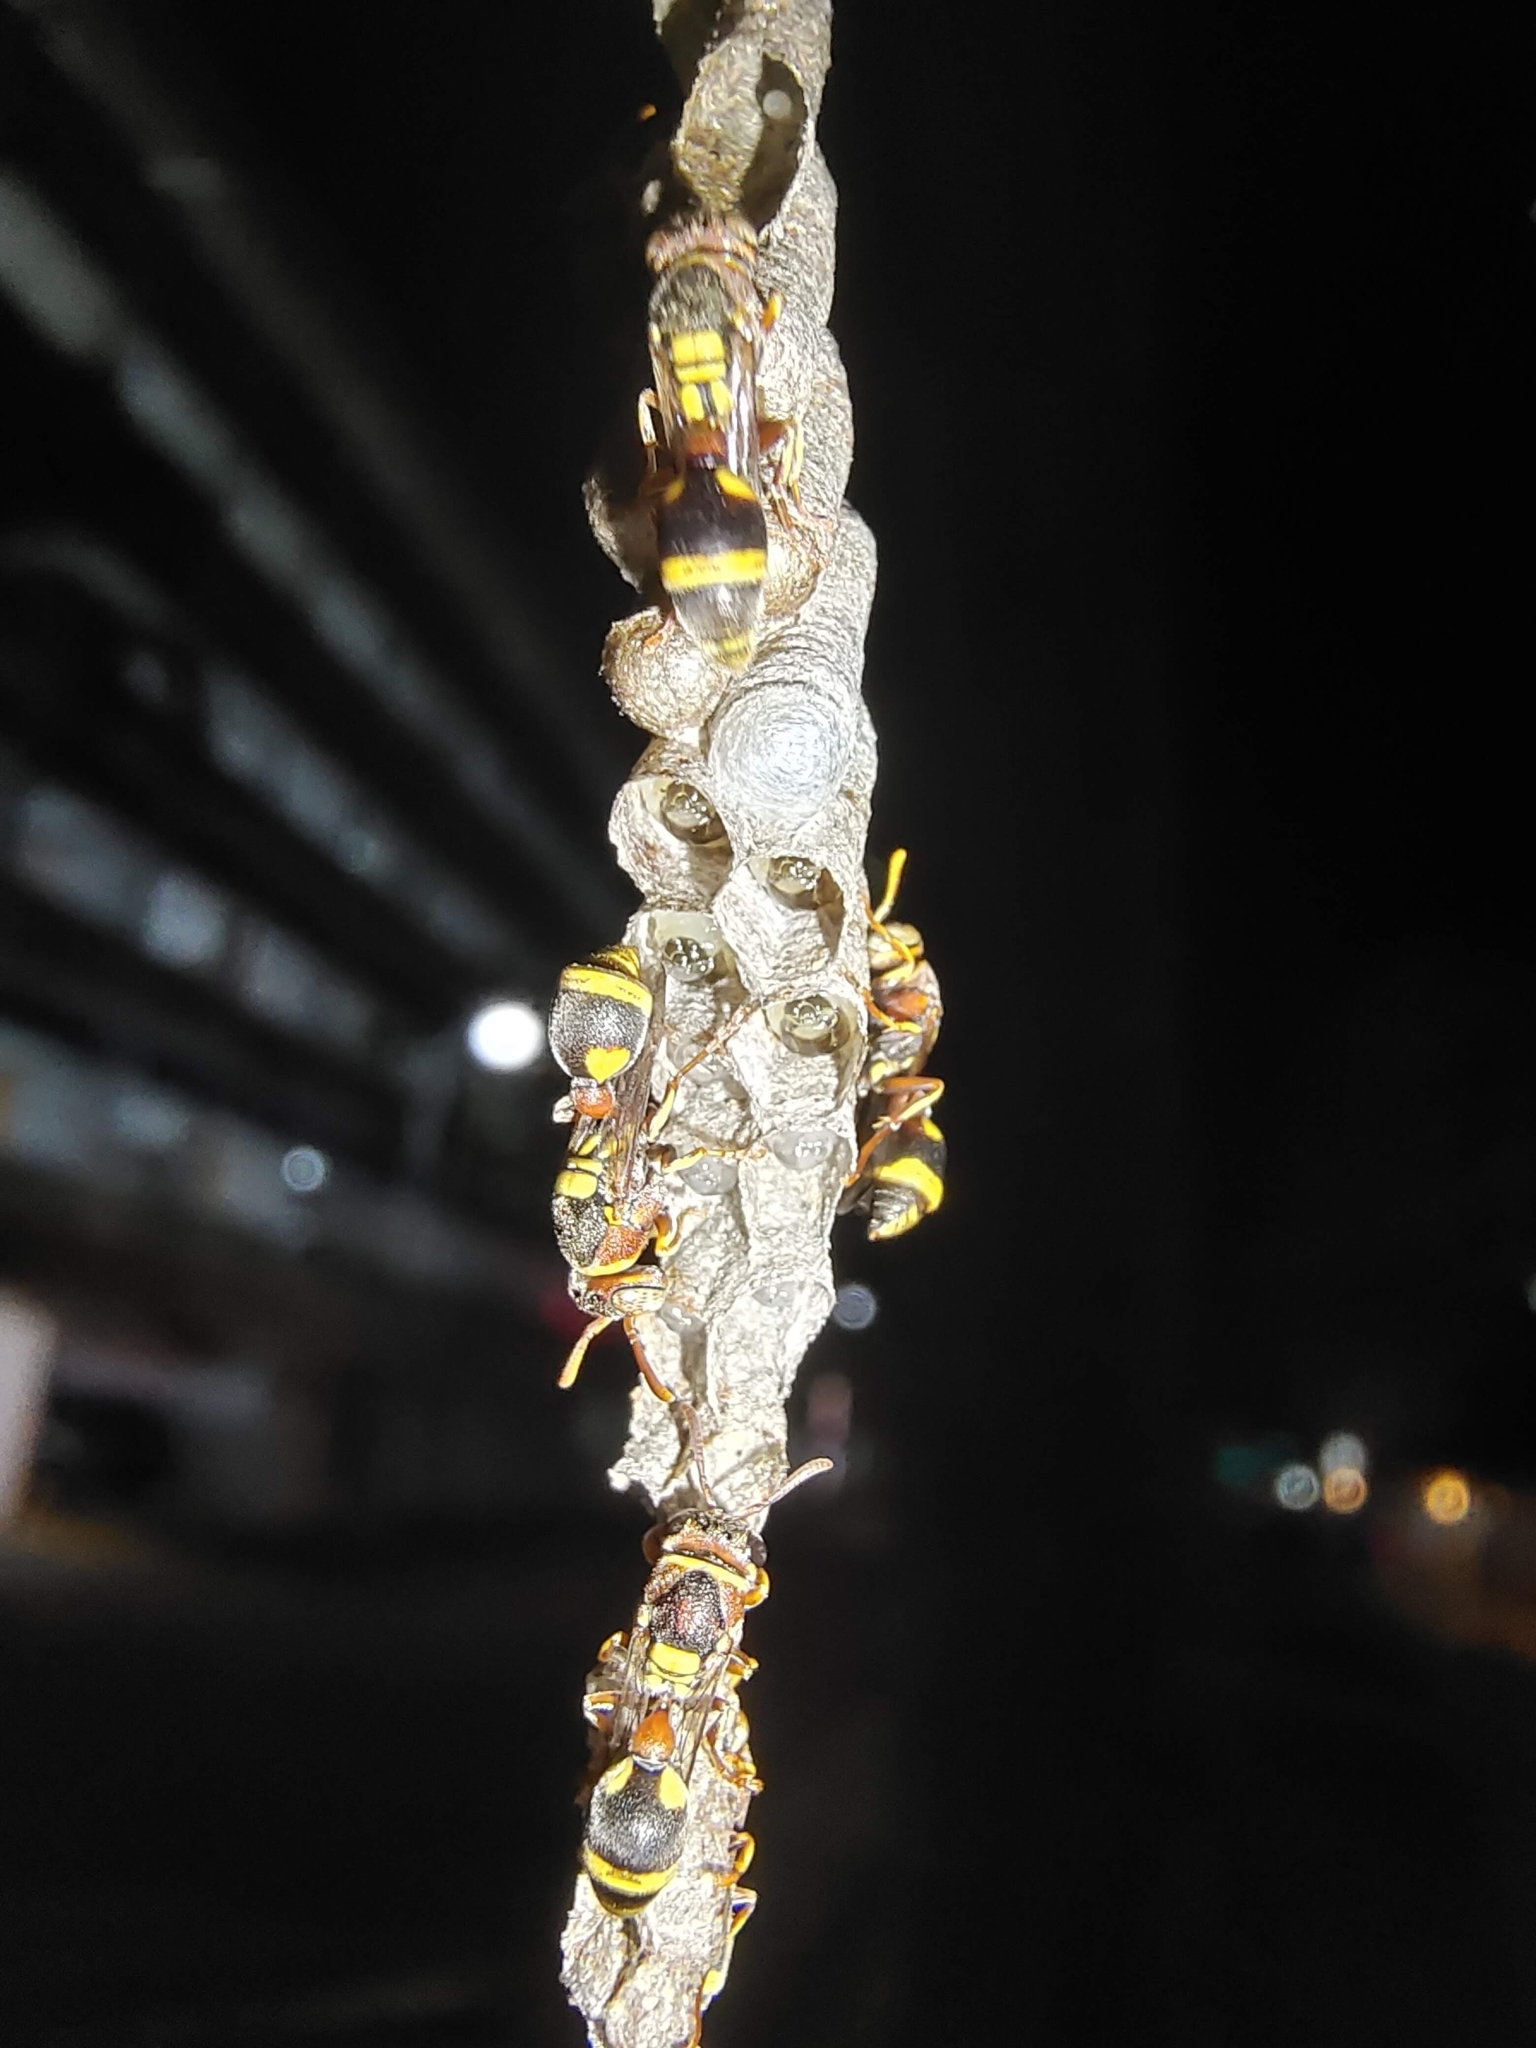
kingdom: Animalia
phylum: Arthropoda
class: Insecta
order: Hymenoptera
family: Vespidae
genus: Ropalidia
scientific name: Ropalidia jacobsoni
